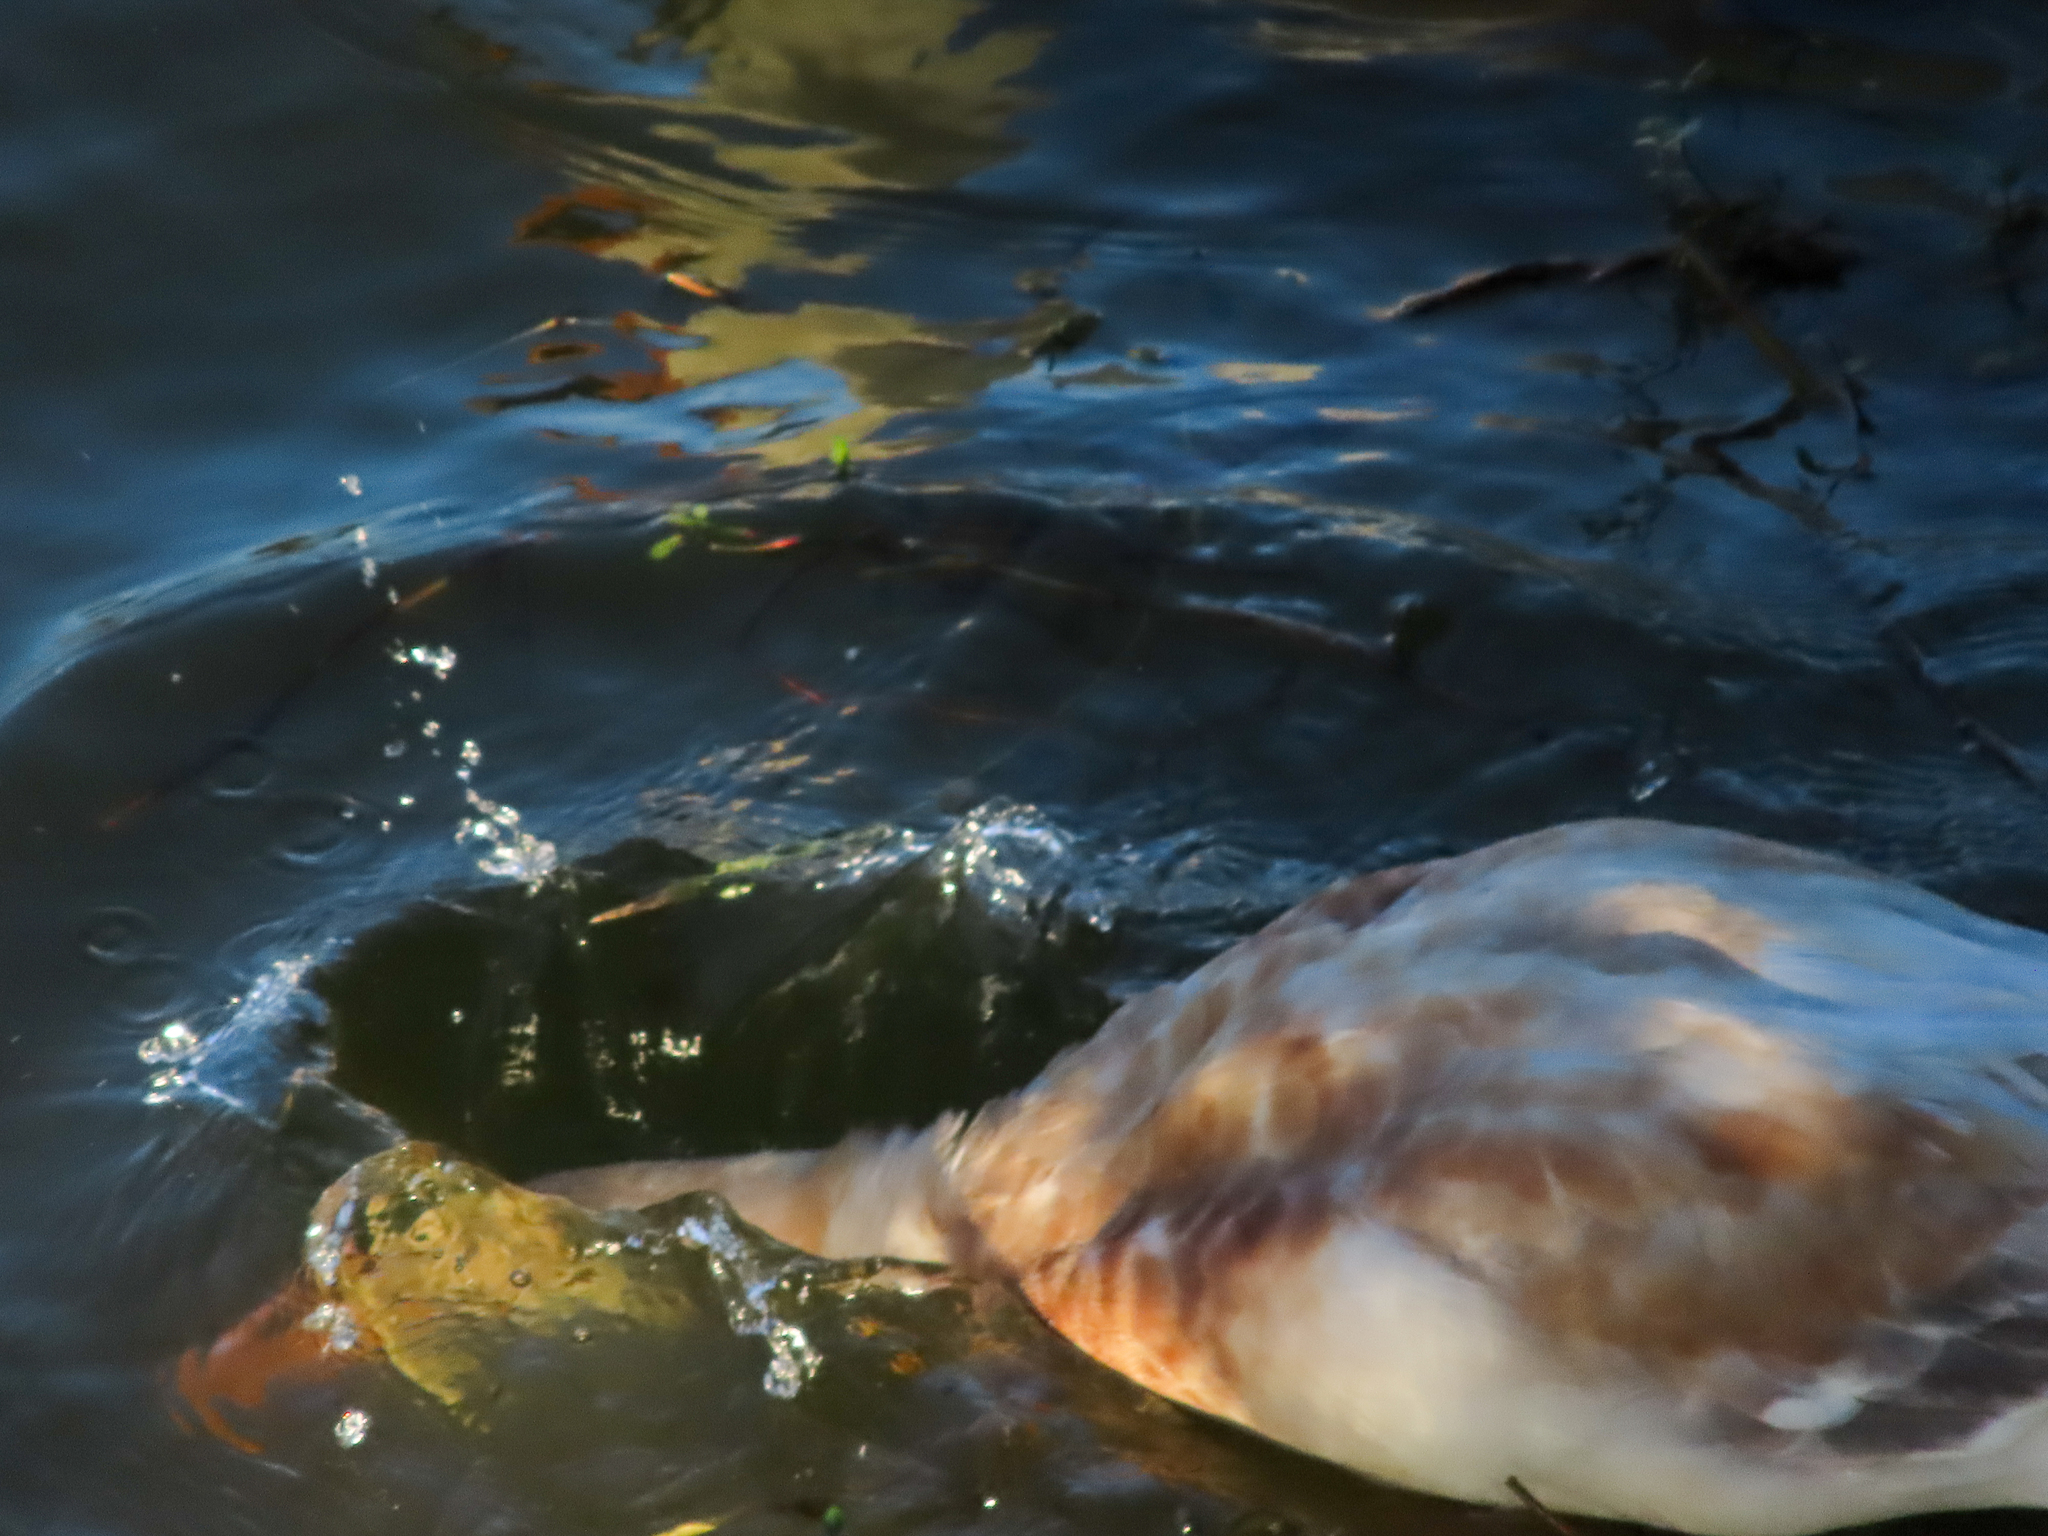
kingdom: Animalia
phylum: Chordata
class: Aves
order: Anseriformes
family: Anatidae
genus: Anas
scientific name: Anas platyrhynchos
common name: Mallard
